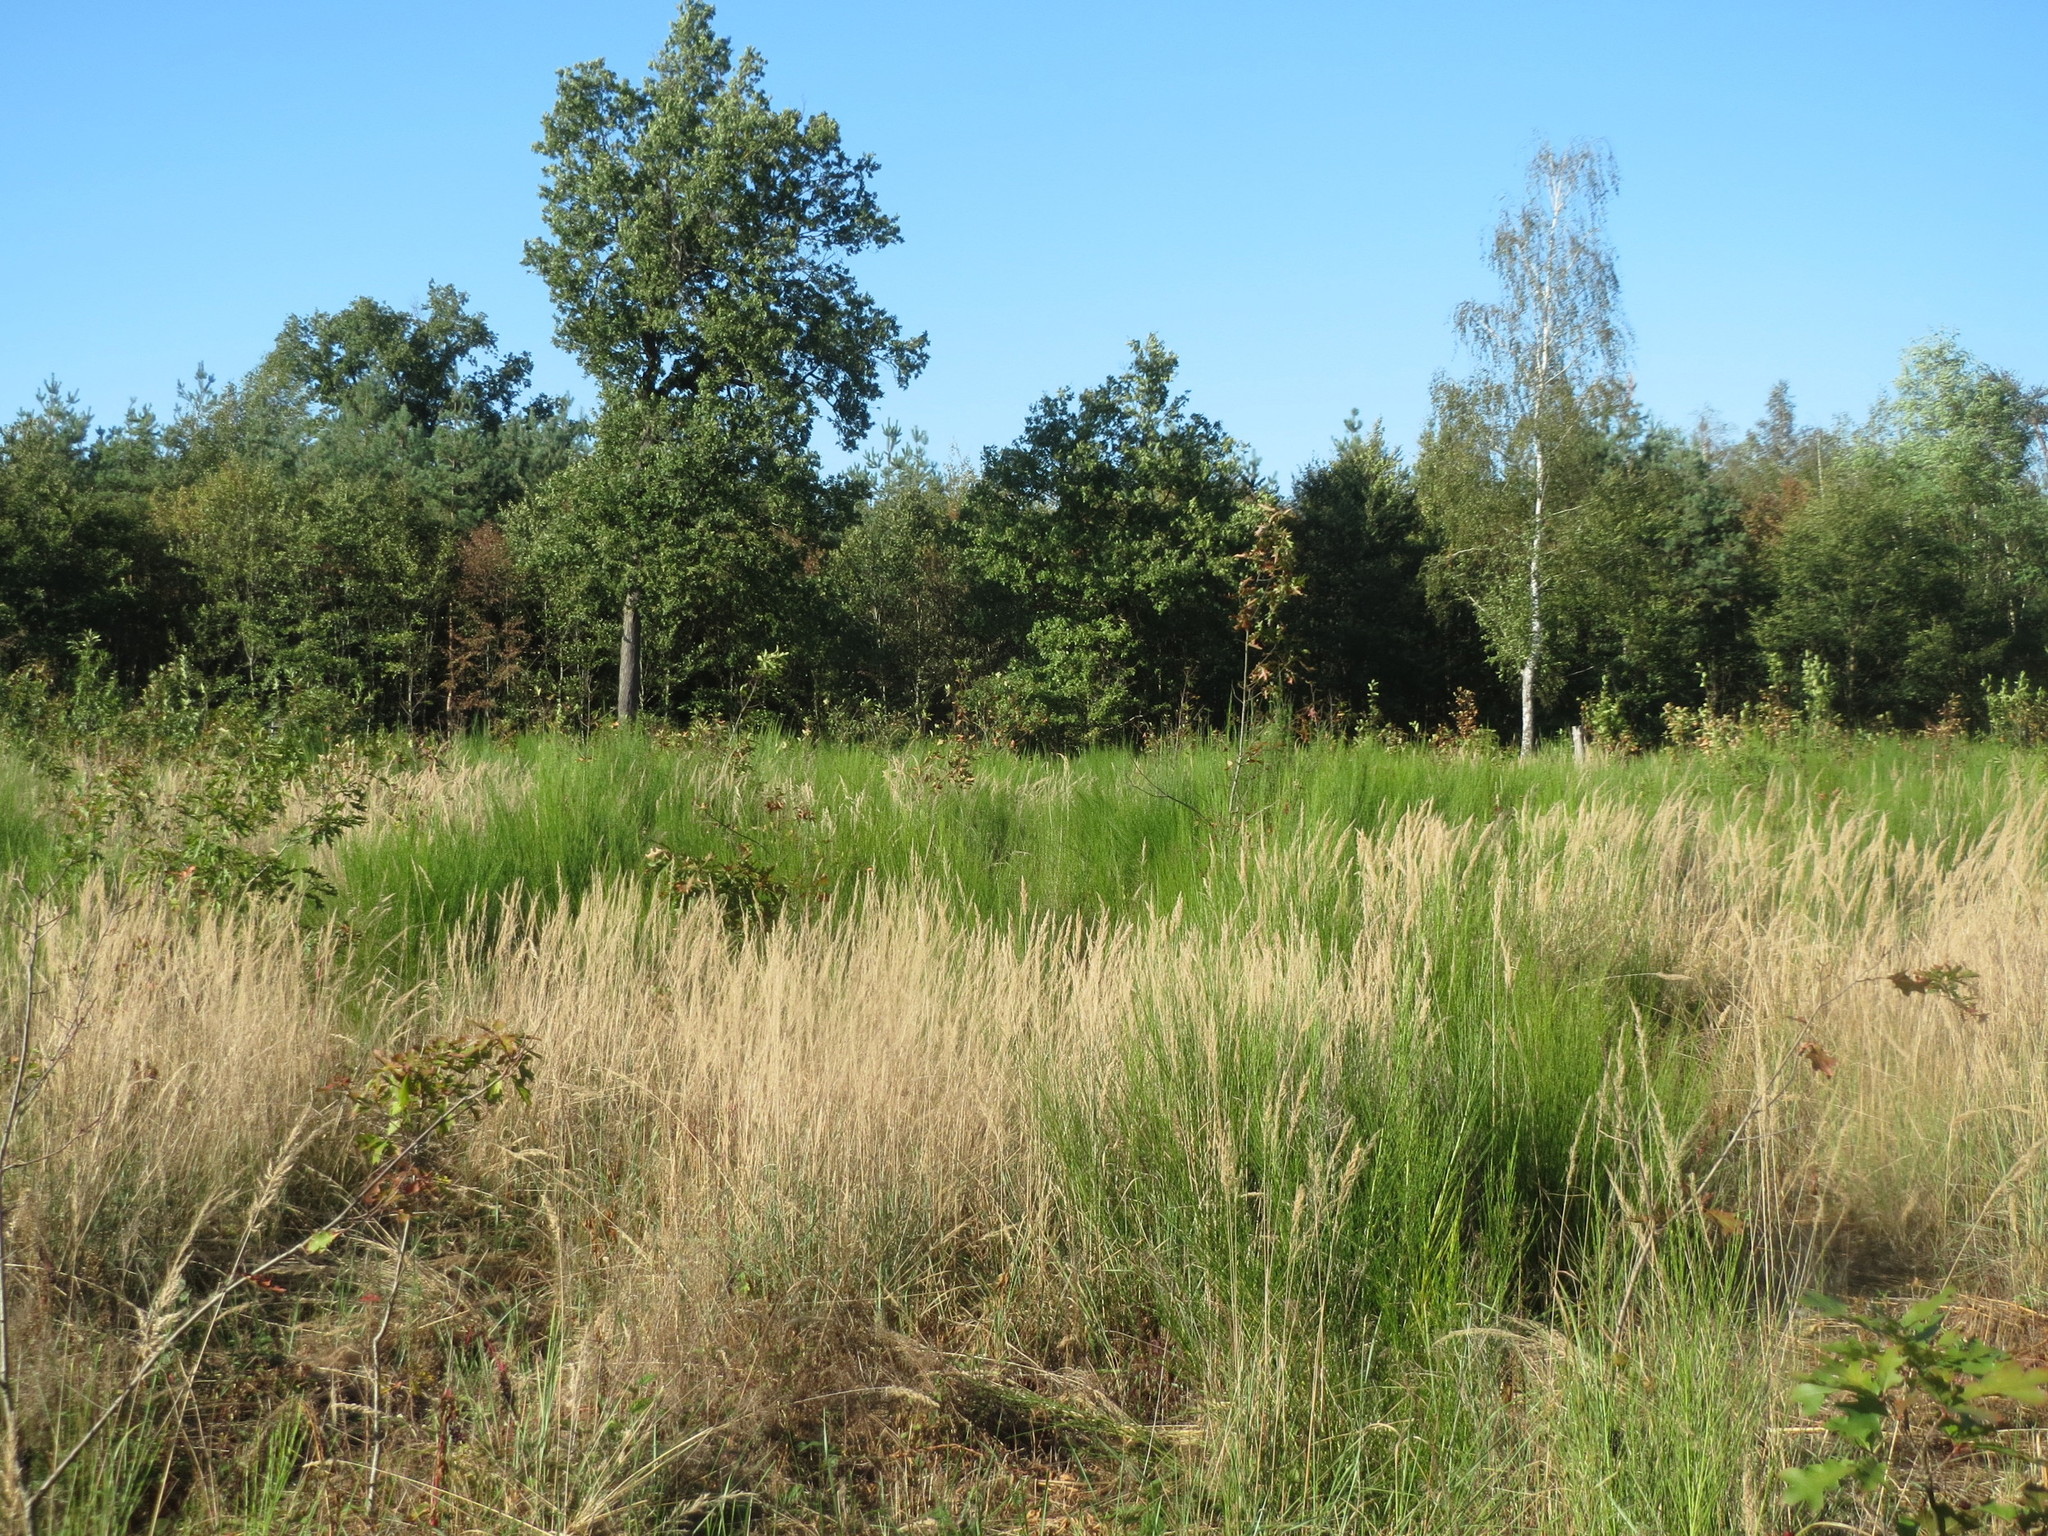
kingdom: Plantae
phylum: Tracheophyta
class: Magnoliopsida
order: Fabales
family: Fabaceae
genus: Cytisus
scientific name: Cytisus scoparius
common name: Scotch broom
